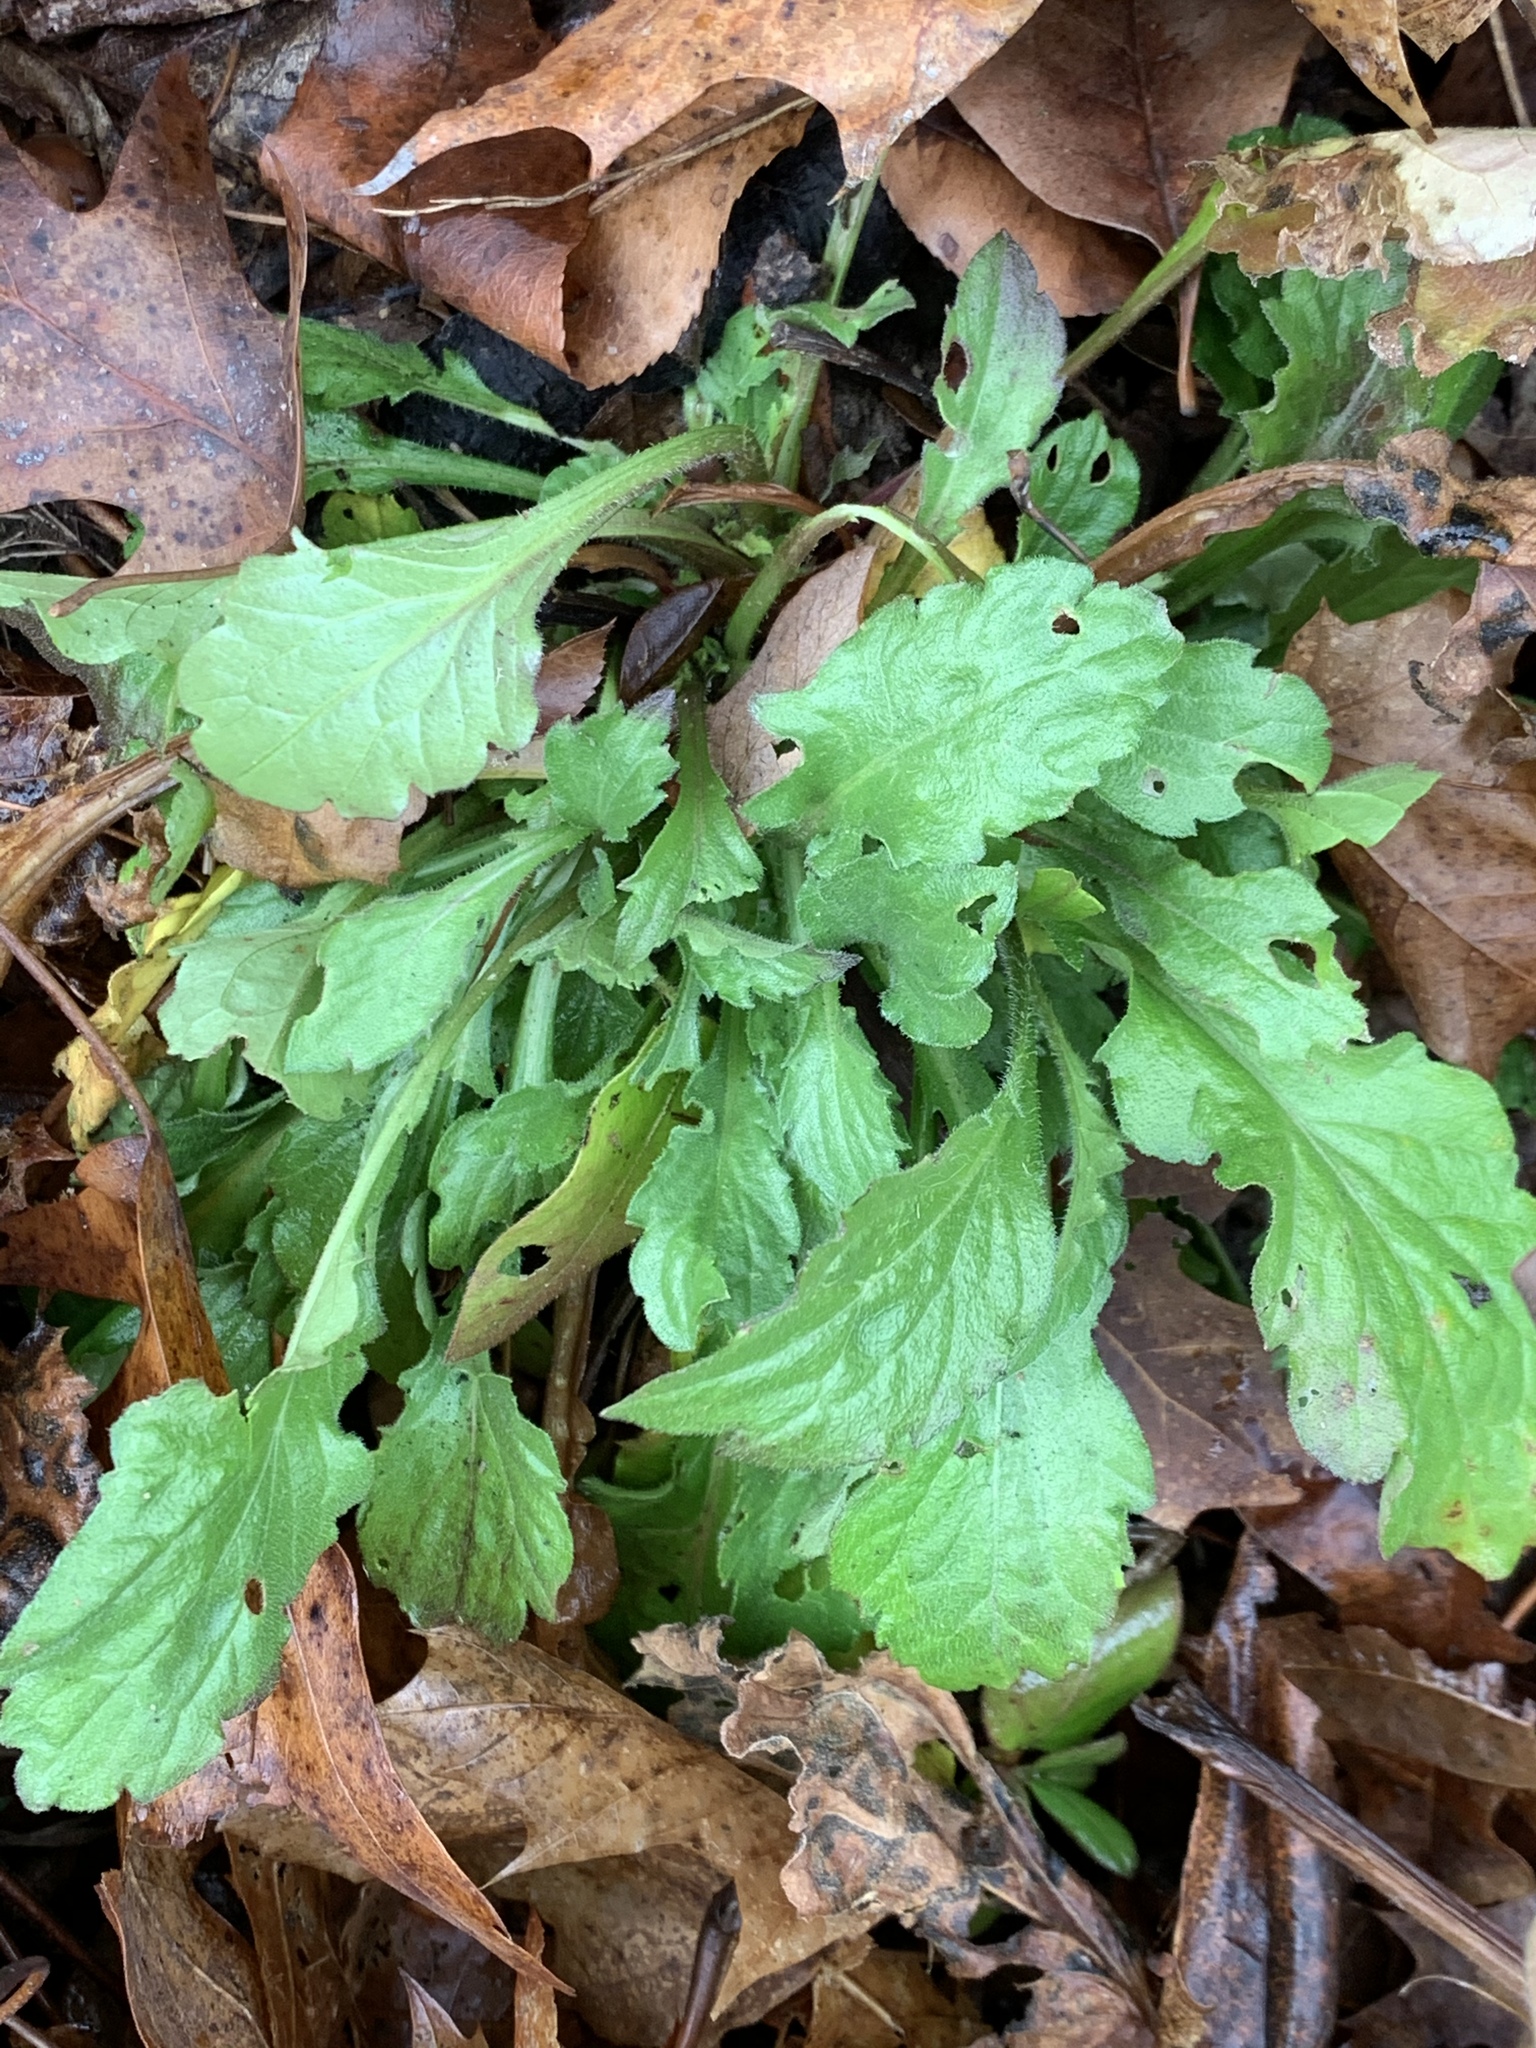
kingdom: Plantae
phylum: Tracheophyta
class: Magnoliopsida
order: Asterales
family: Asteraceae
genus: Erigeron
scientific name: Erigeron canadensis
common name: Canadian fleabane
